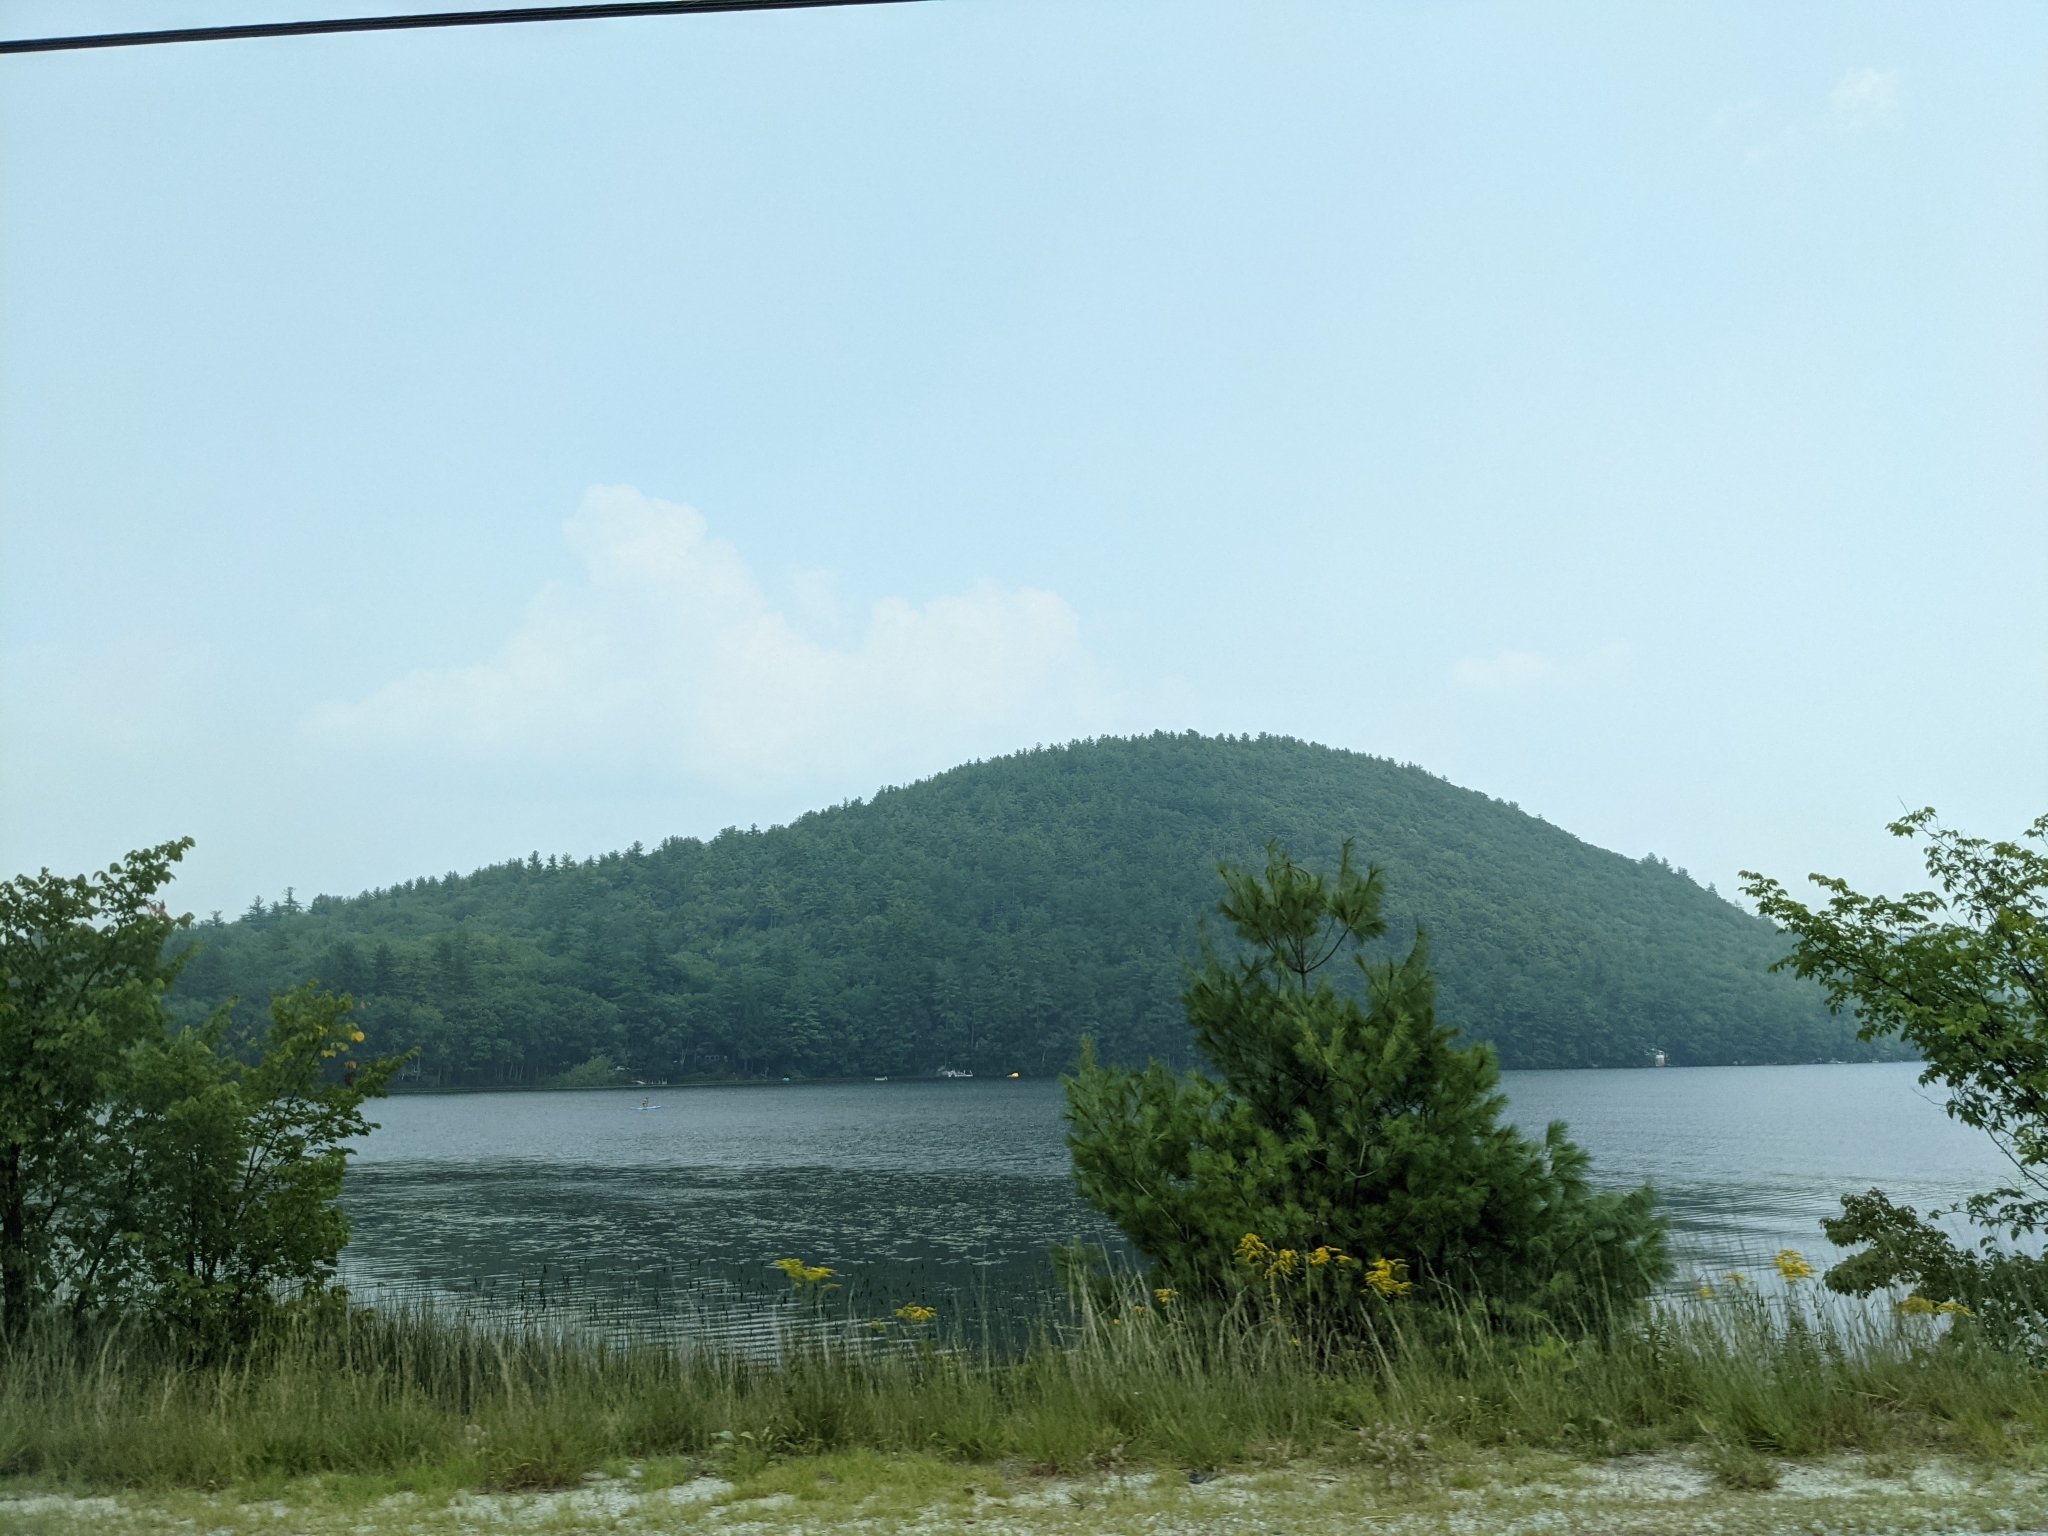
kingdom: Plantae
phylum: Tracheophyta
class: Pinopsida
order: Pinales
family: Pinaceae
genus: Pinus
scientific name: Pinus strobus
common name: Weymouth pine
